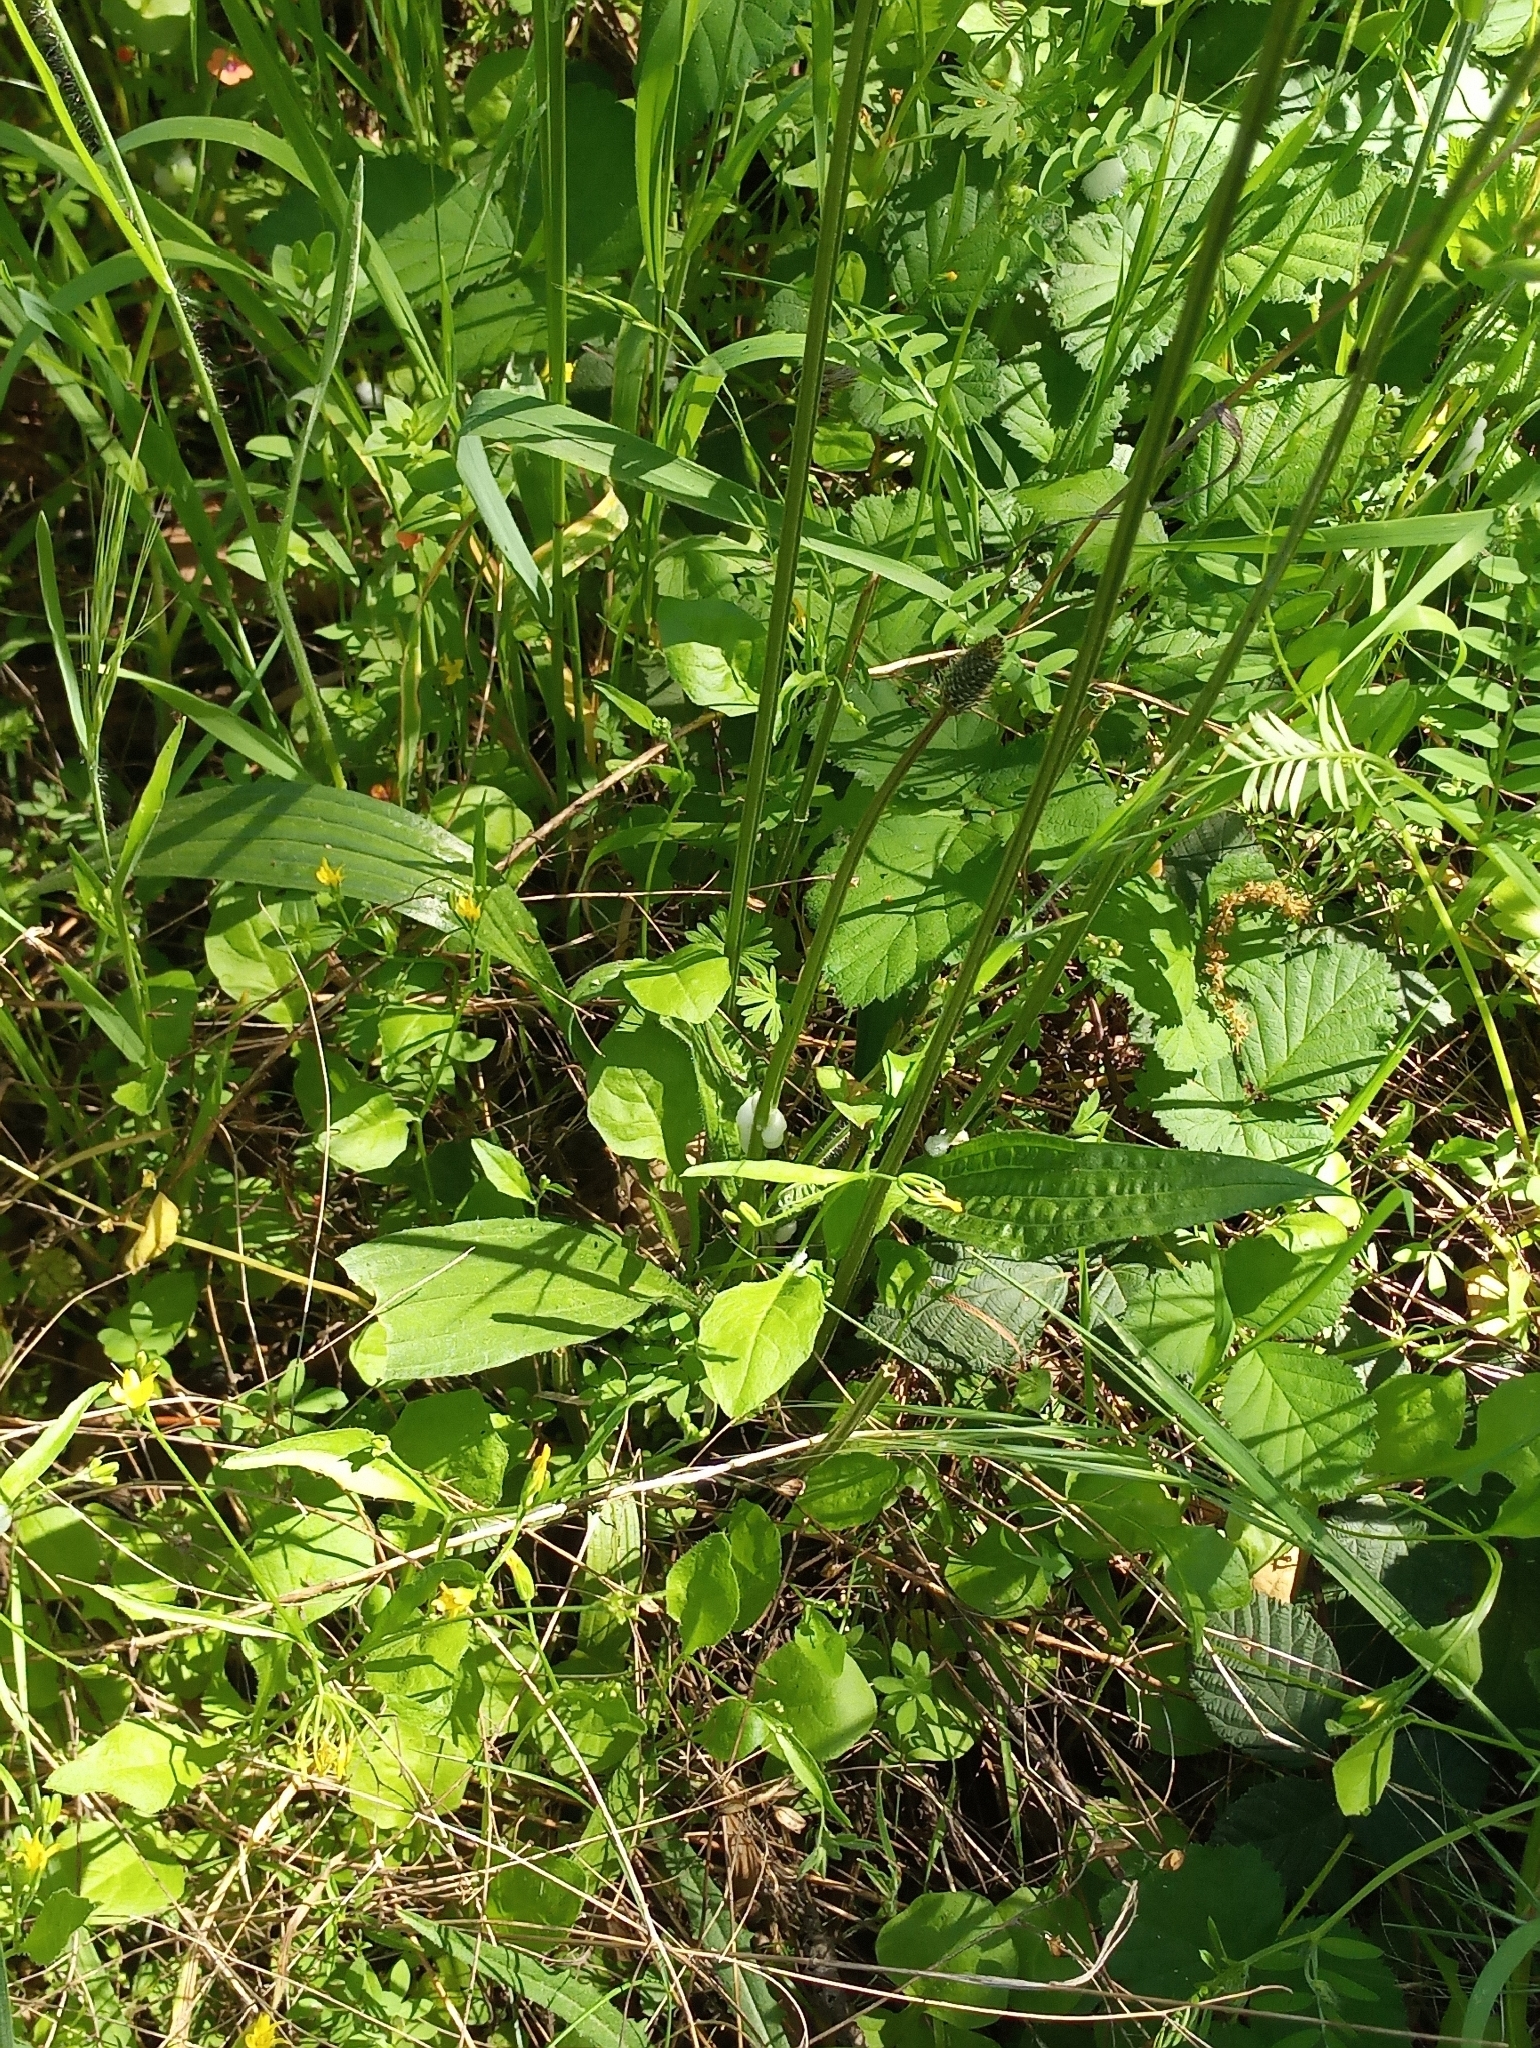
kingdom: Plantae
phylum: Tracheophyta
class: Magnoliopsida
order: Lamiales
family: Plantaginaceae
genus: Plantago
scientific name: Plantago lanceolata
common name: Ribwort plantain
